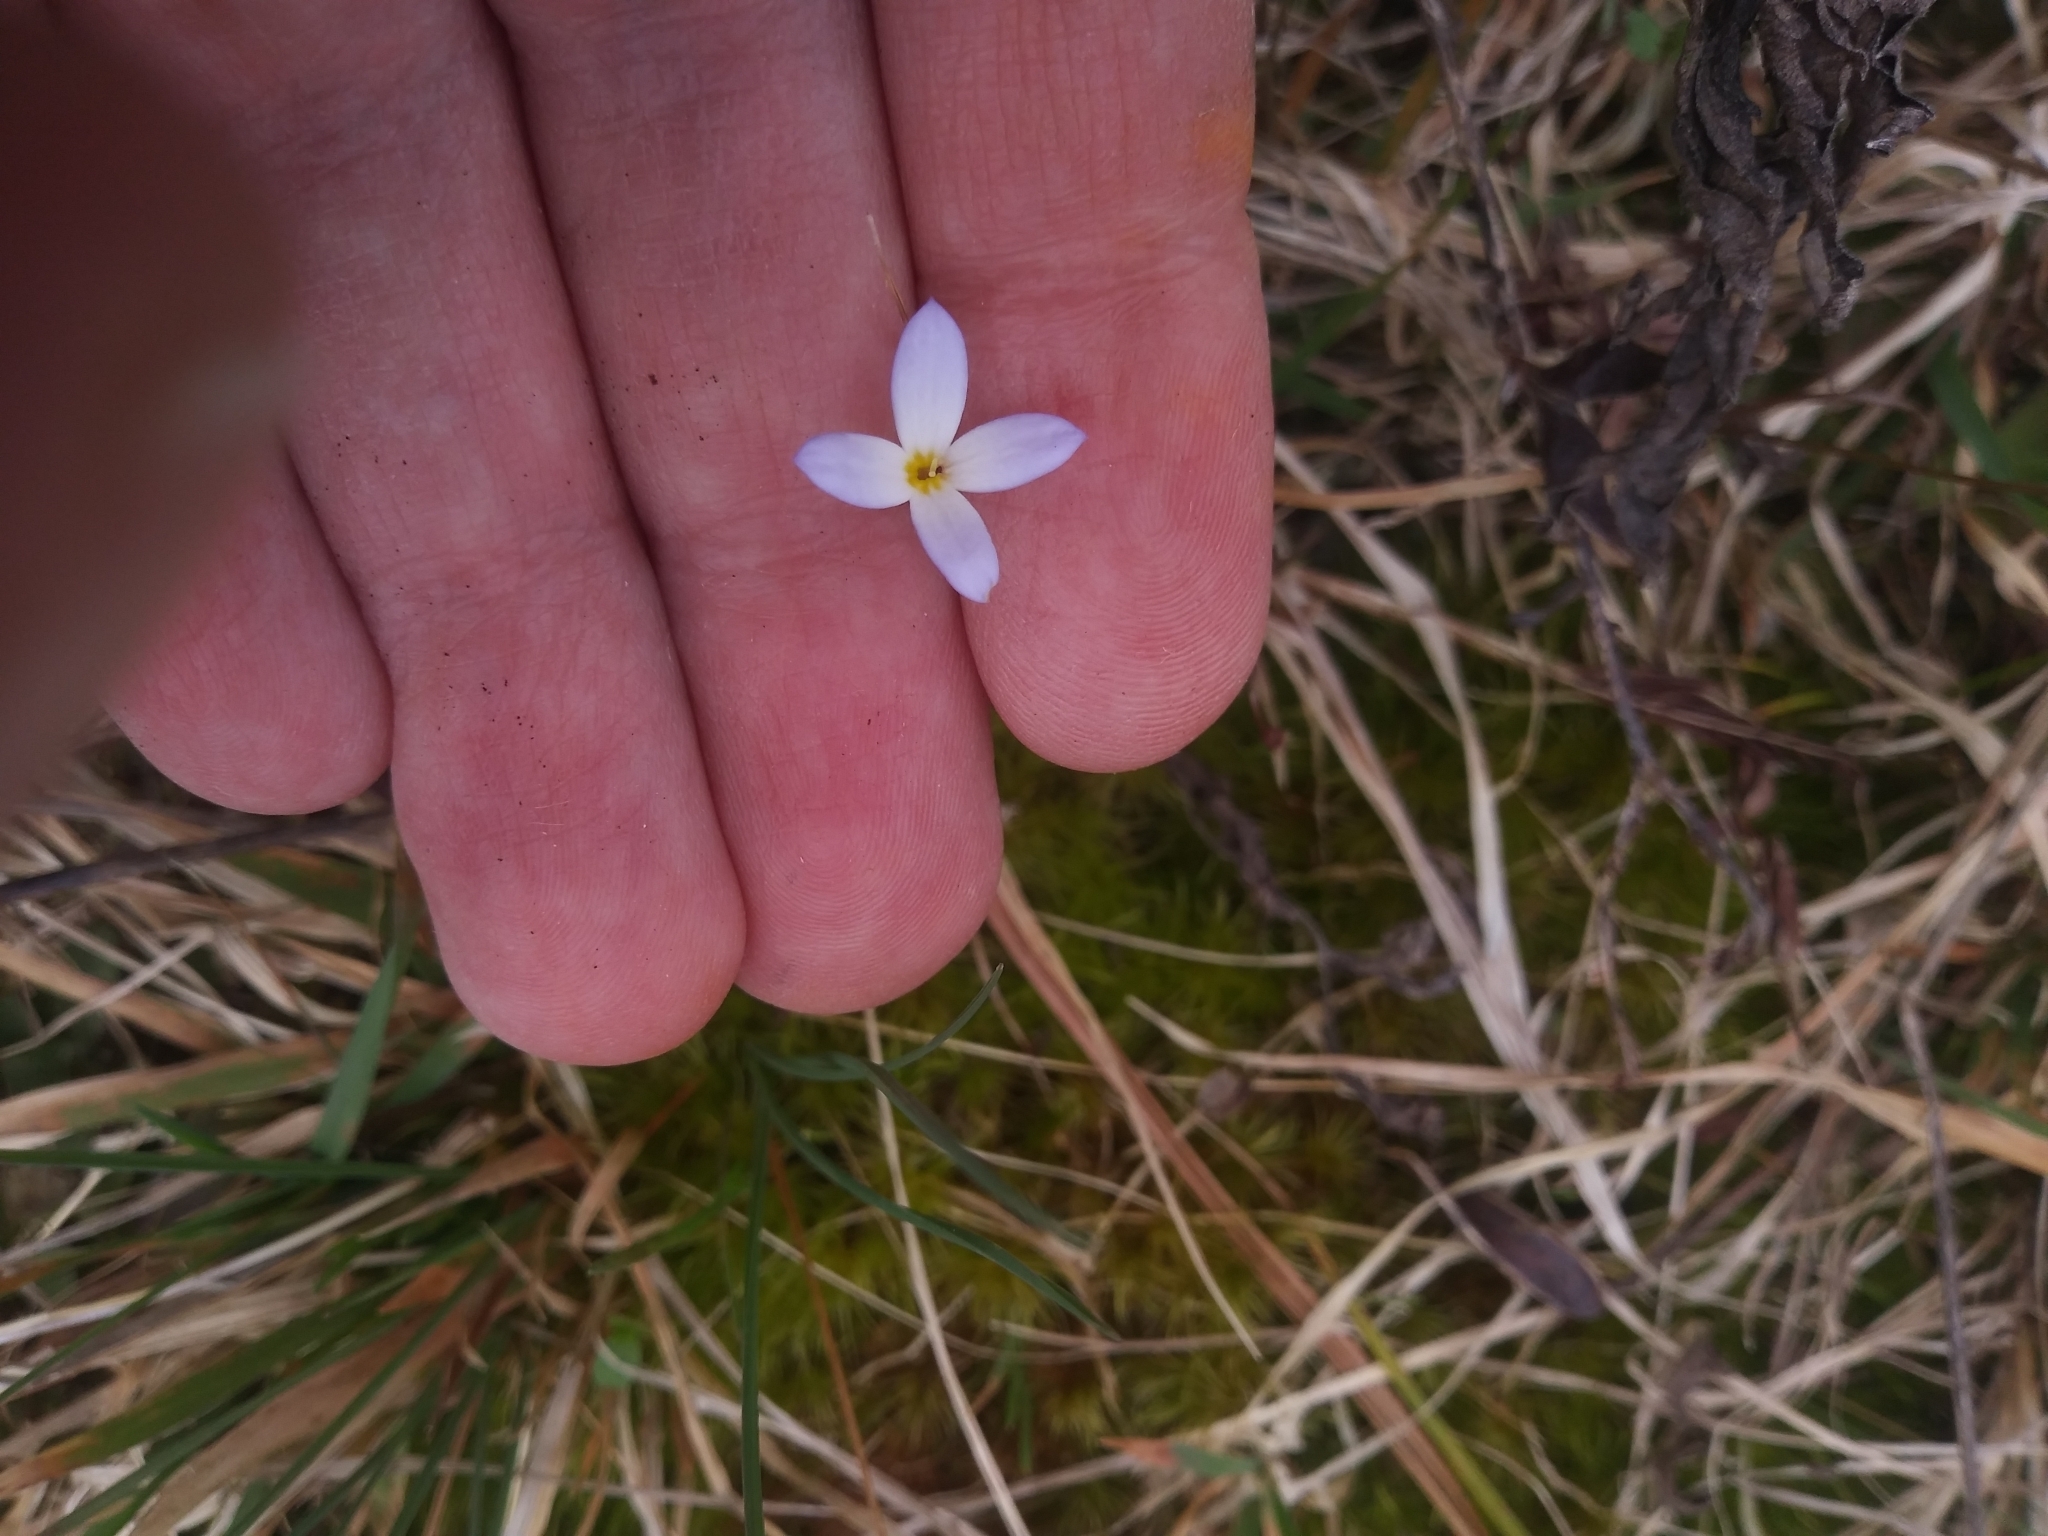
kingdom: Plantae
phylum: Tracheophyta
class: Magnoliopsida
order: Gentianales
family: Rubiaceae
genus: Houstonia
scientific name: Houstonia caerulea
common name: Bluets
